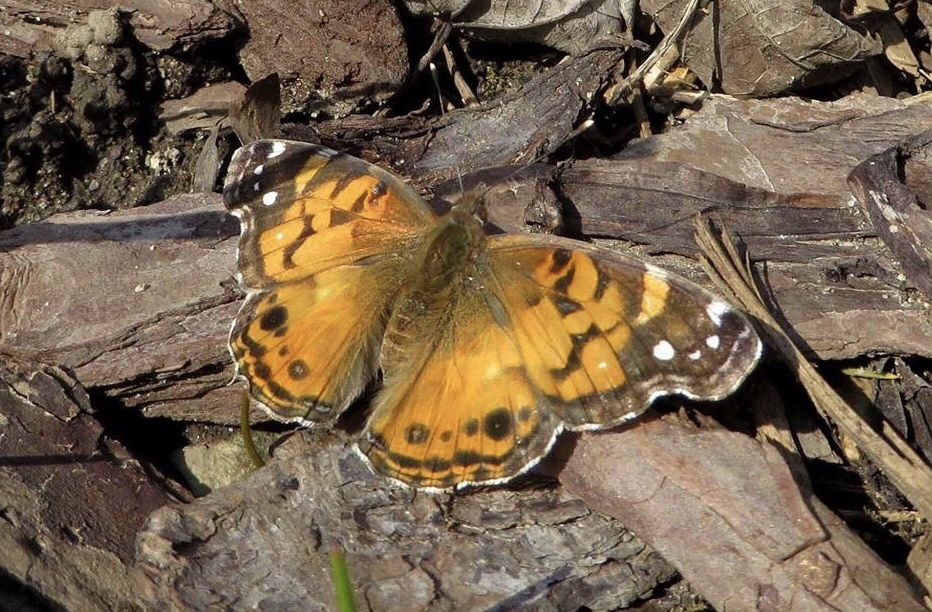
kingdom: Animalia
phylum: Arthropoda
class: Insecta
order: Lepidoptera
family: Nymphalidae
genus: Vanessa
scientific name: Vanessa virginiensis
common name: American lady
